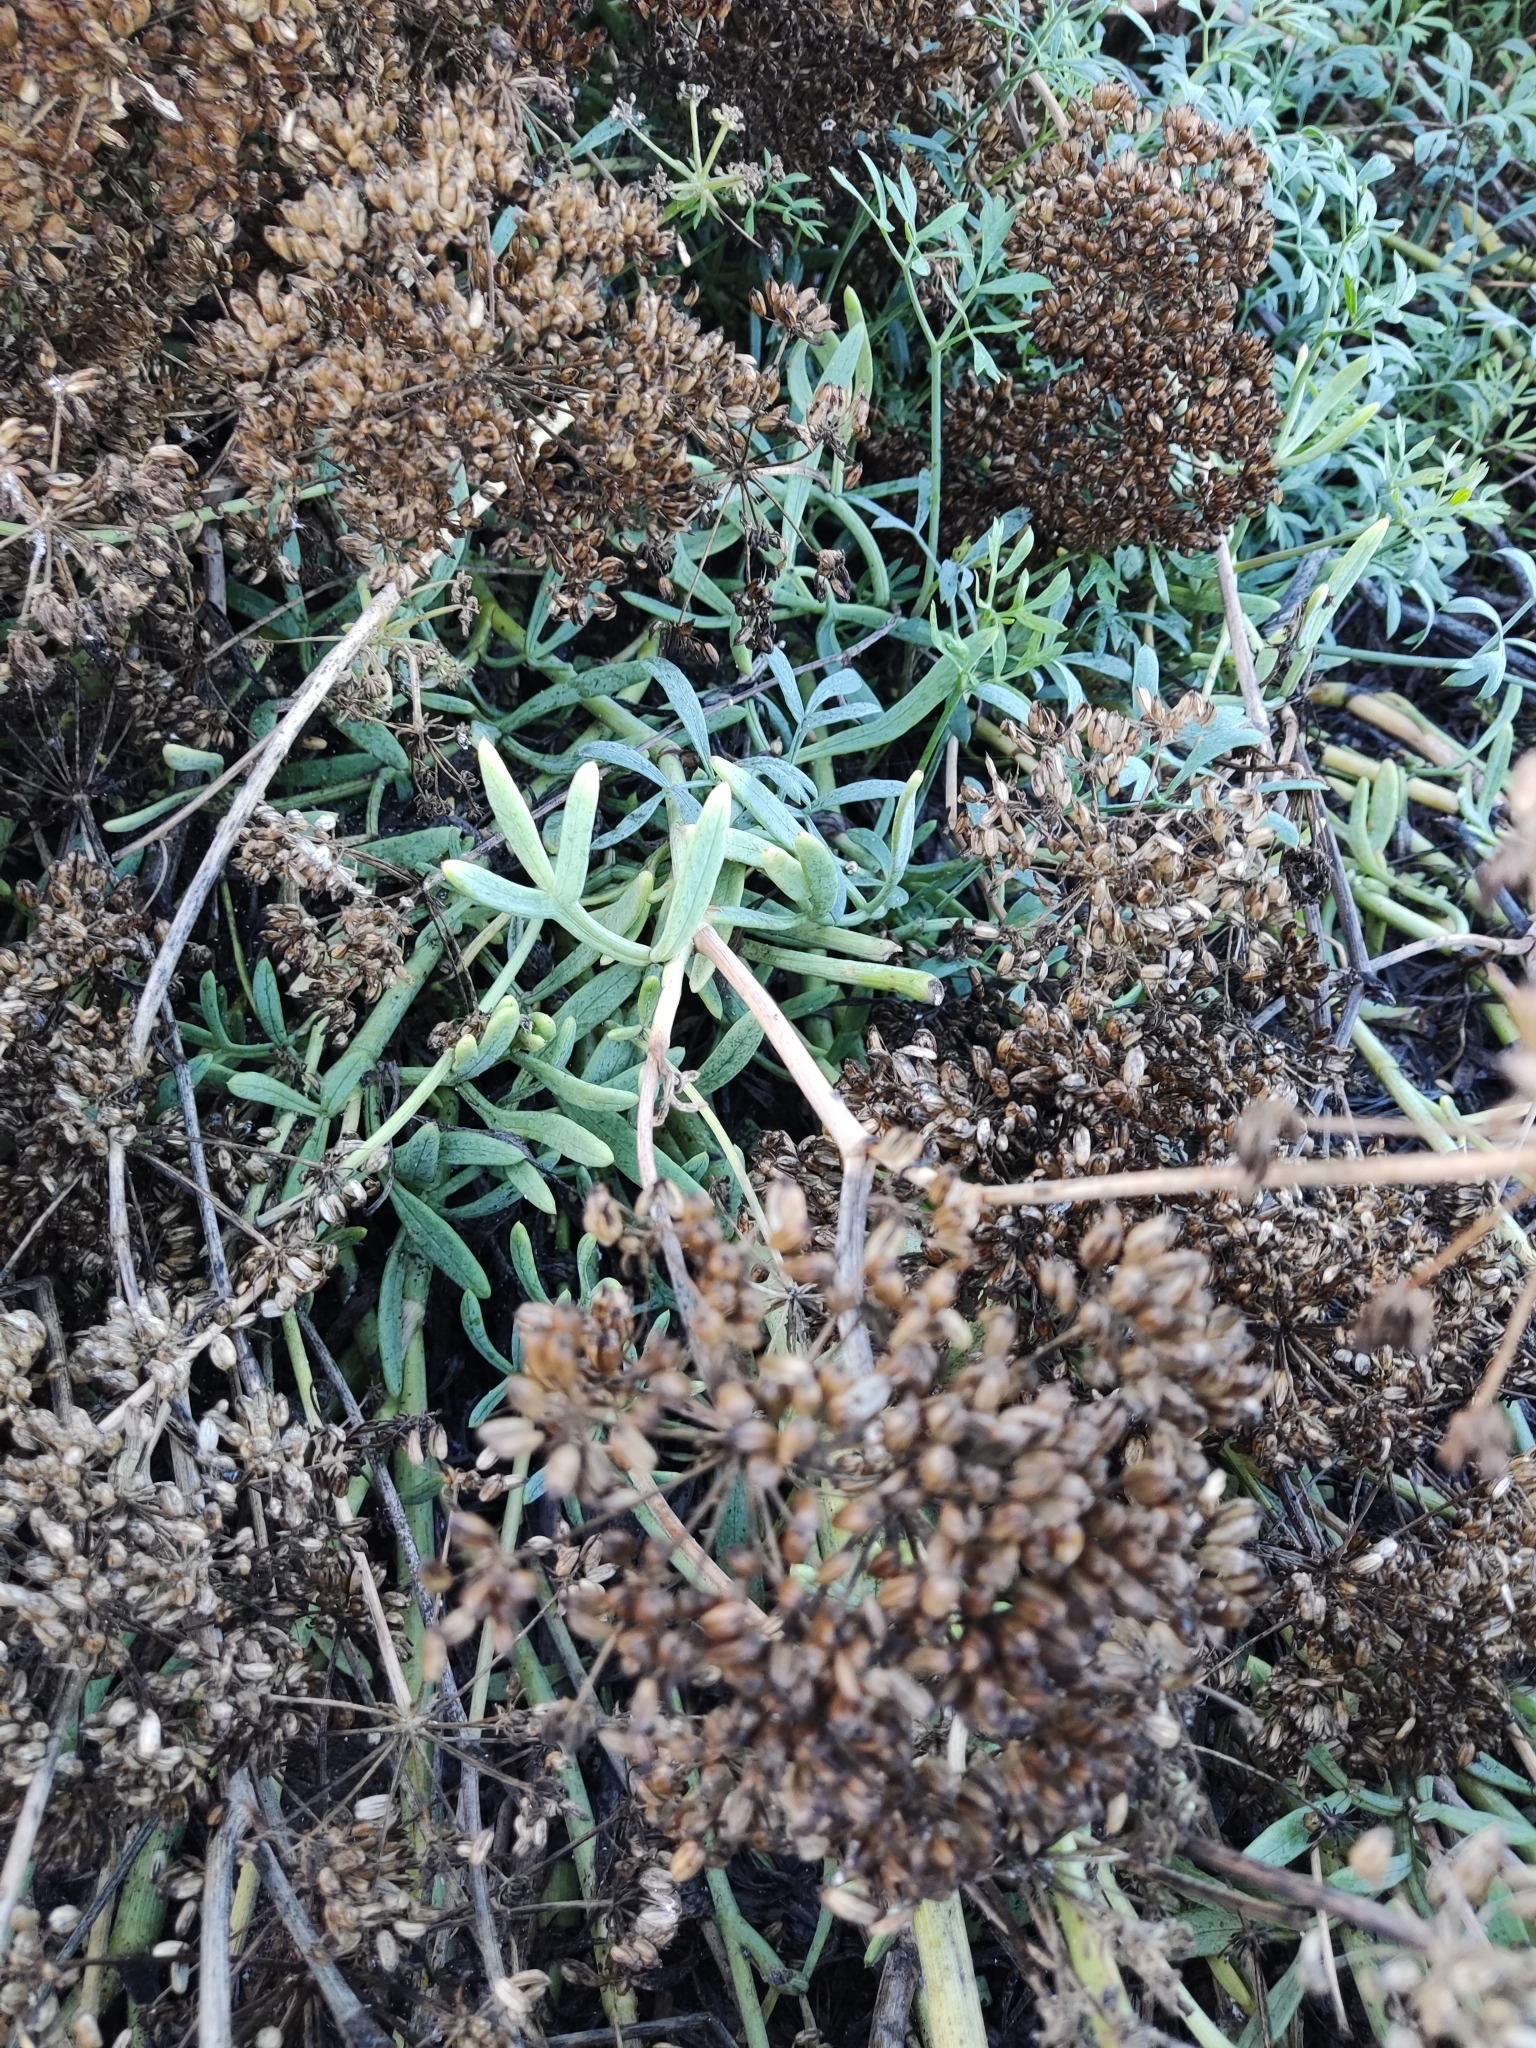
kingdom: Plantae
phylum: Tracheophyta
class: Magnoliopsida
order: Apiales
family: Apiaceae
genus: Crithmum
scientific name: Crithmum maritimum
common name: Rock samphire
